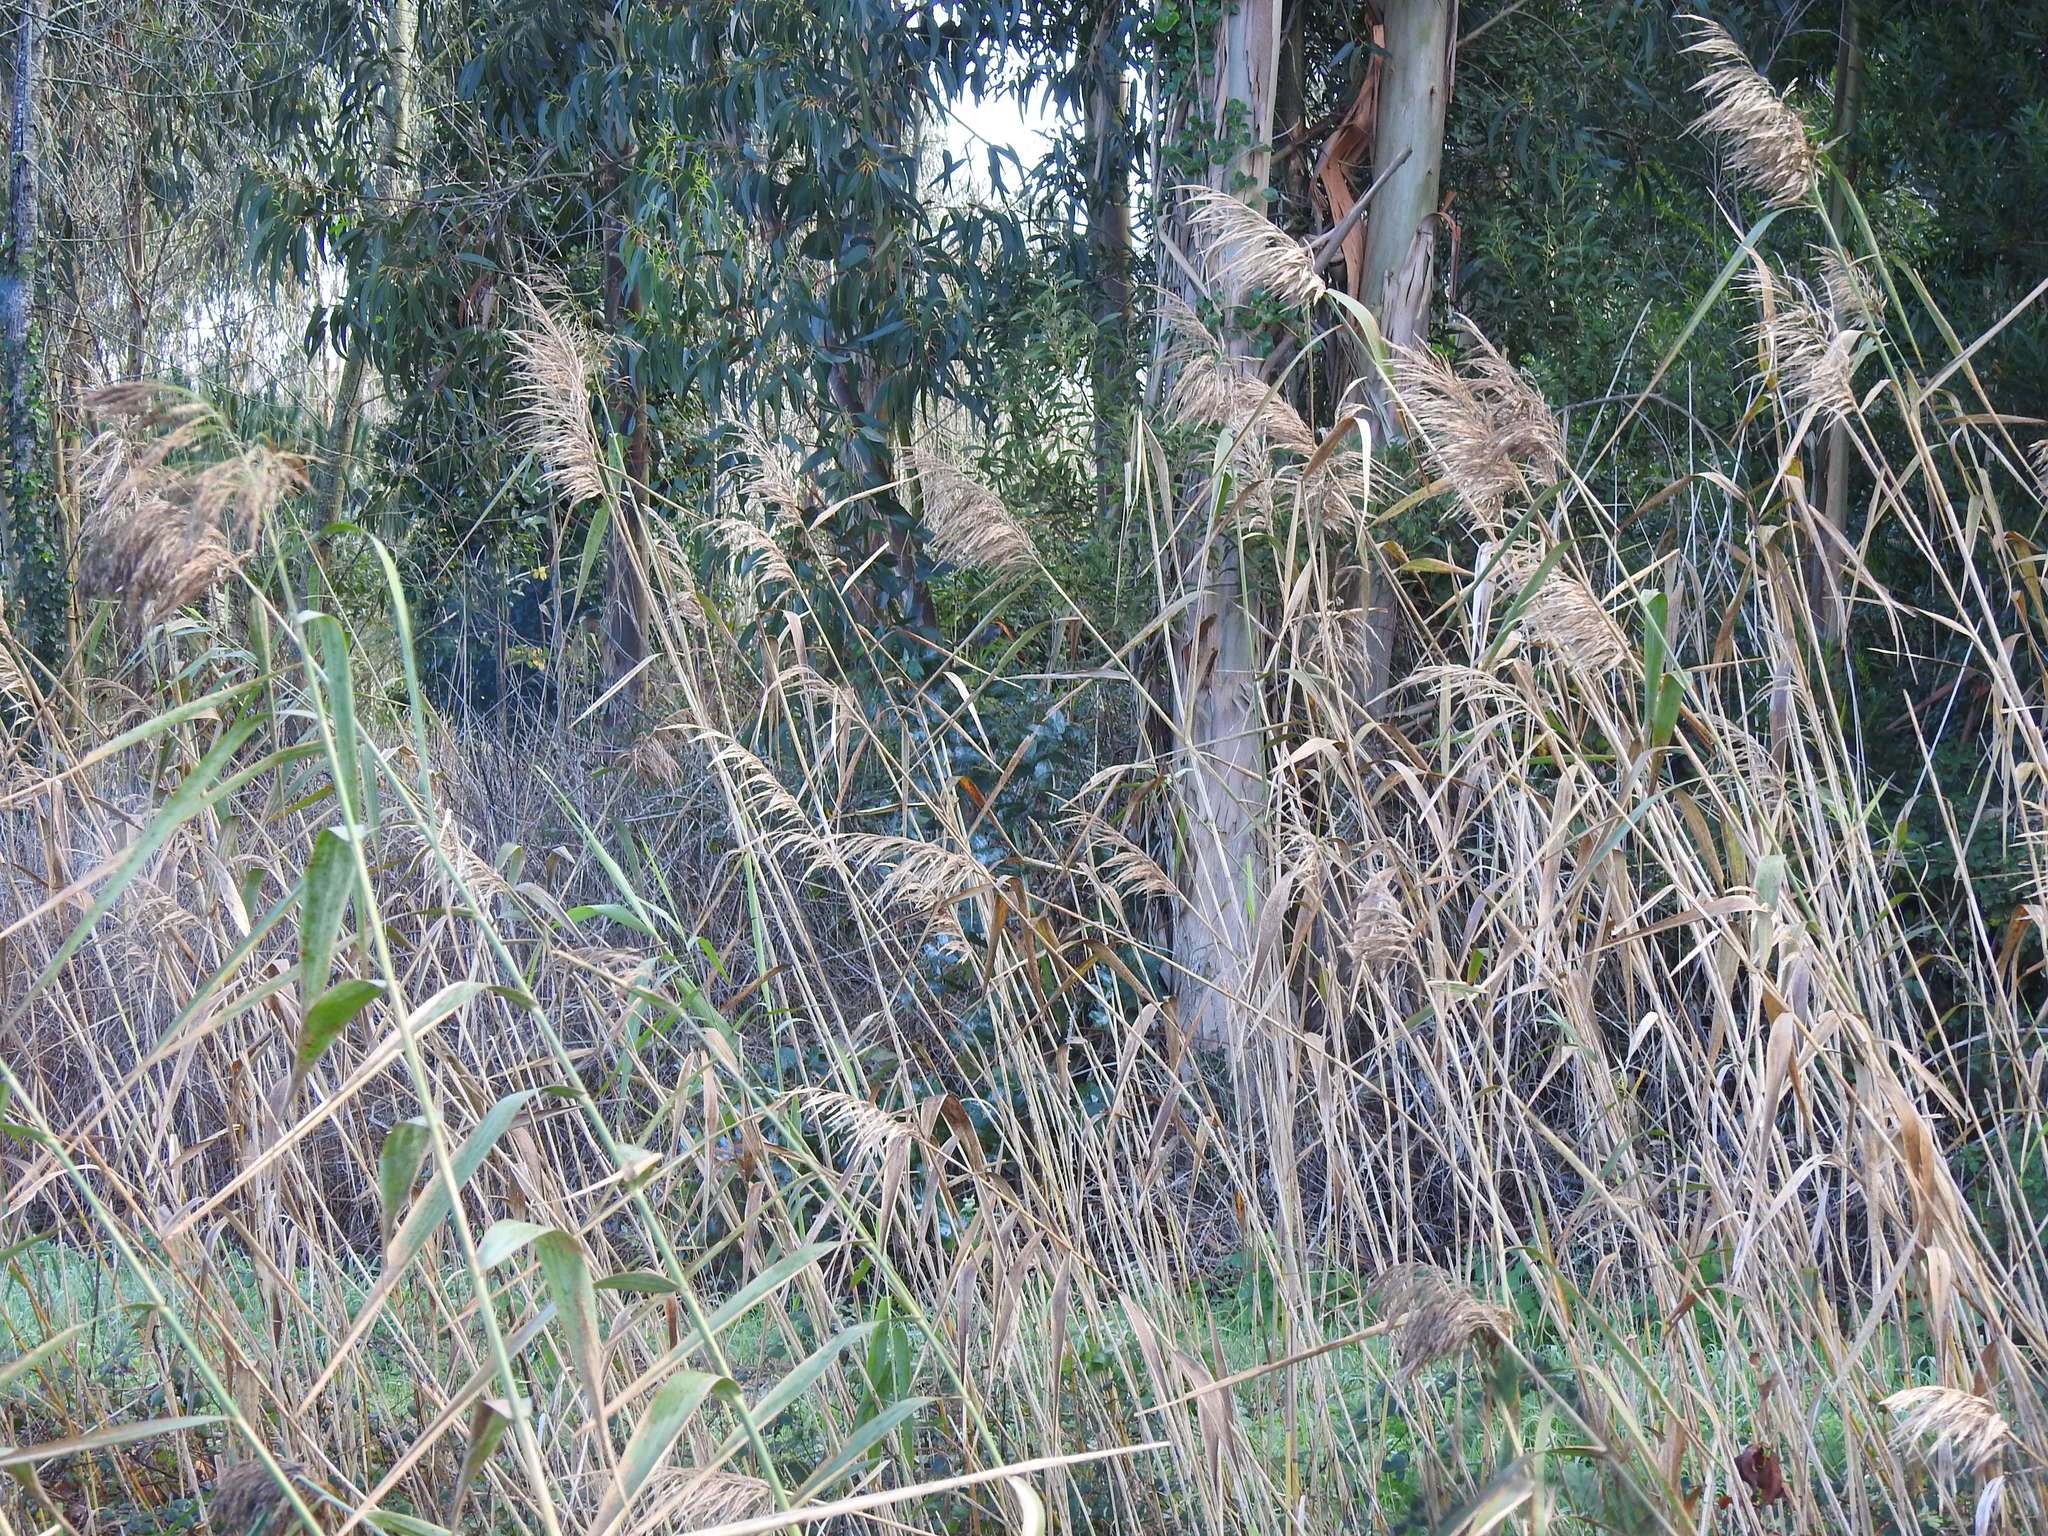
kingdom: Plantae
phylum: Tracheophyta
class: Liliopsida
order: Poales
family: Poaceae
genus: Phragmites
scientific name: Phragmites australis
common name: Common reed
